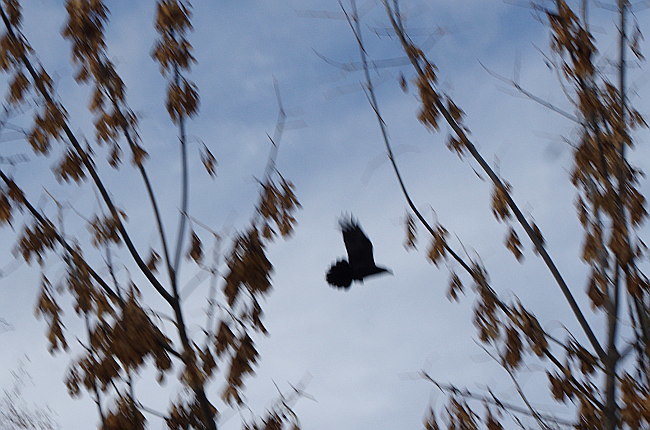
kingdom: Animalia
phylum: Chordata
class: Aves
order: Passeriformes
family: Corvidae
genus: Corvus
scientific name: Corvus corax
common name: Common raven
